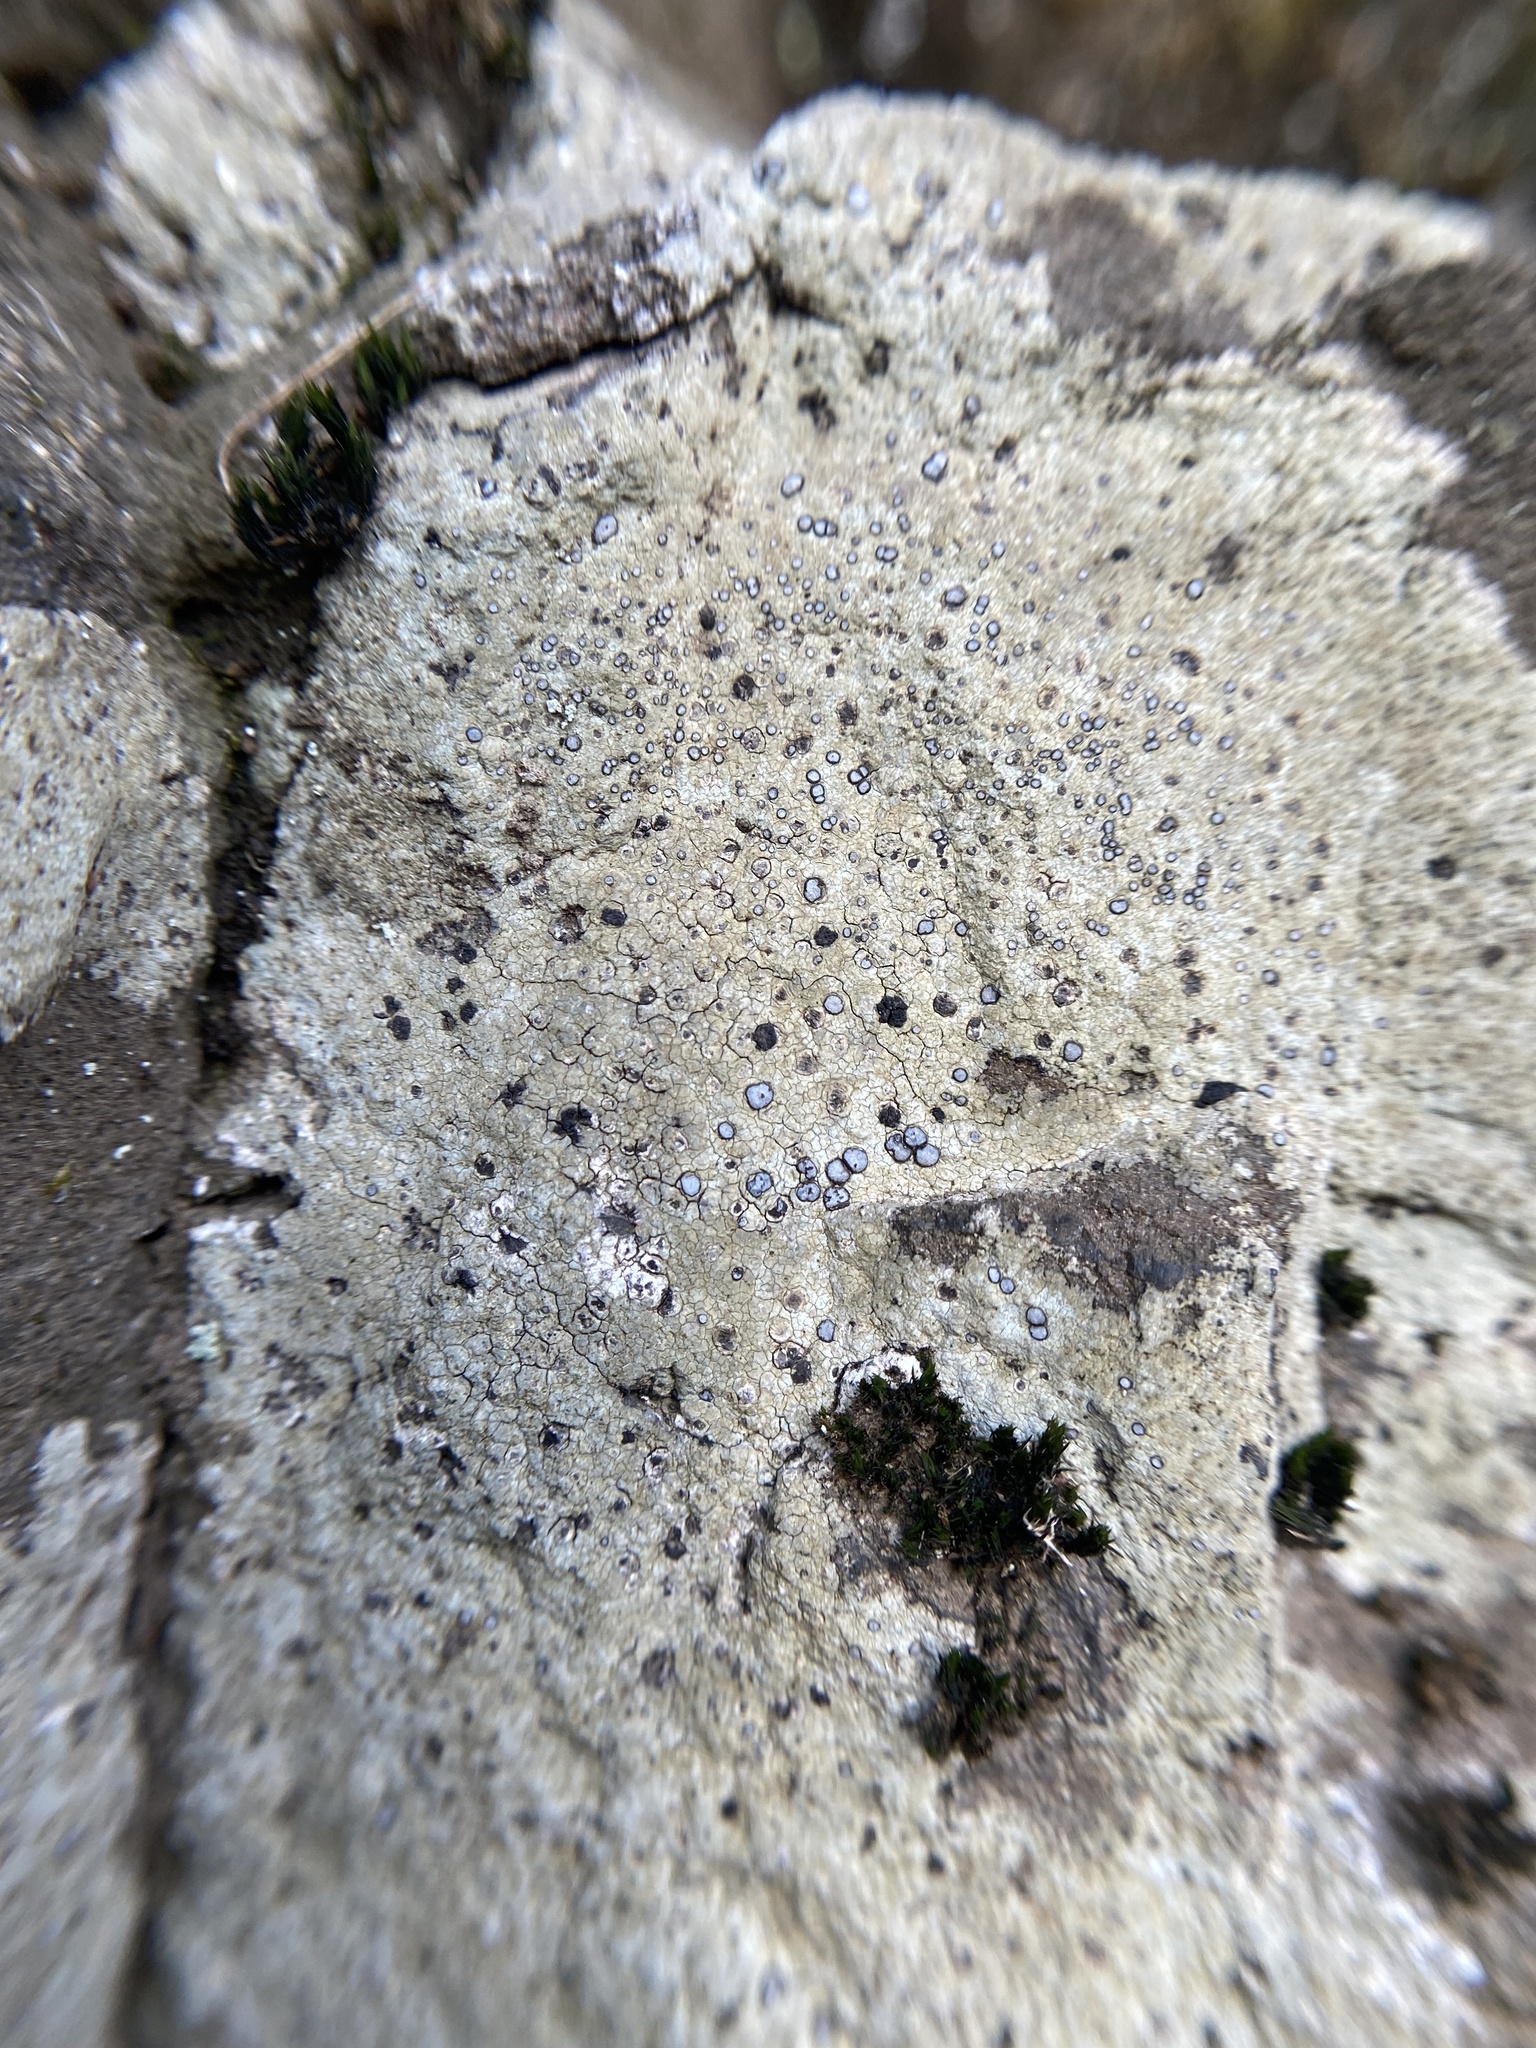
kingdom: Fungi
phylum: Ascomycota
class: Lecanoromycetes
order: Lecideales
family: Lecideaceae
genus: Porpidia
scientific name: Porpidia albocaerulescens
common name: Smokey-eyed boulder lichen
